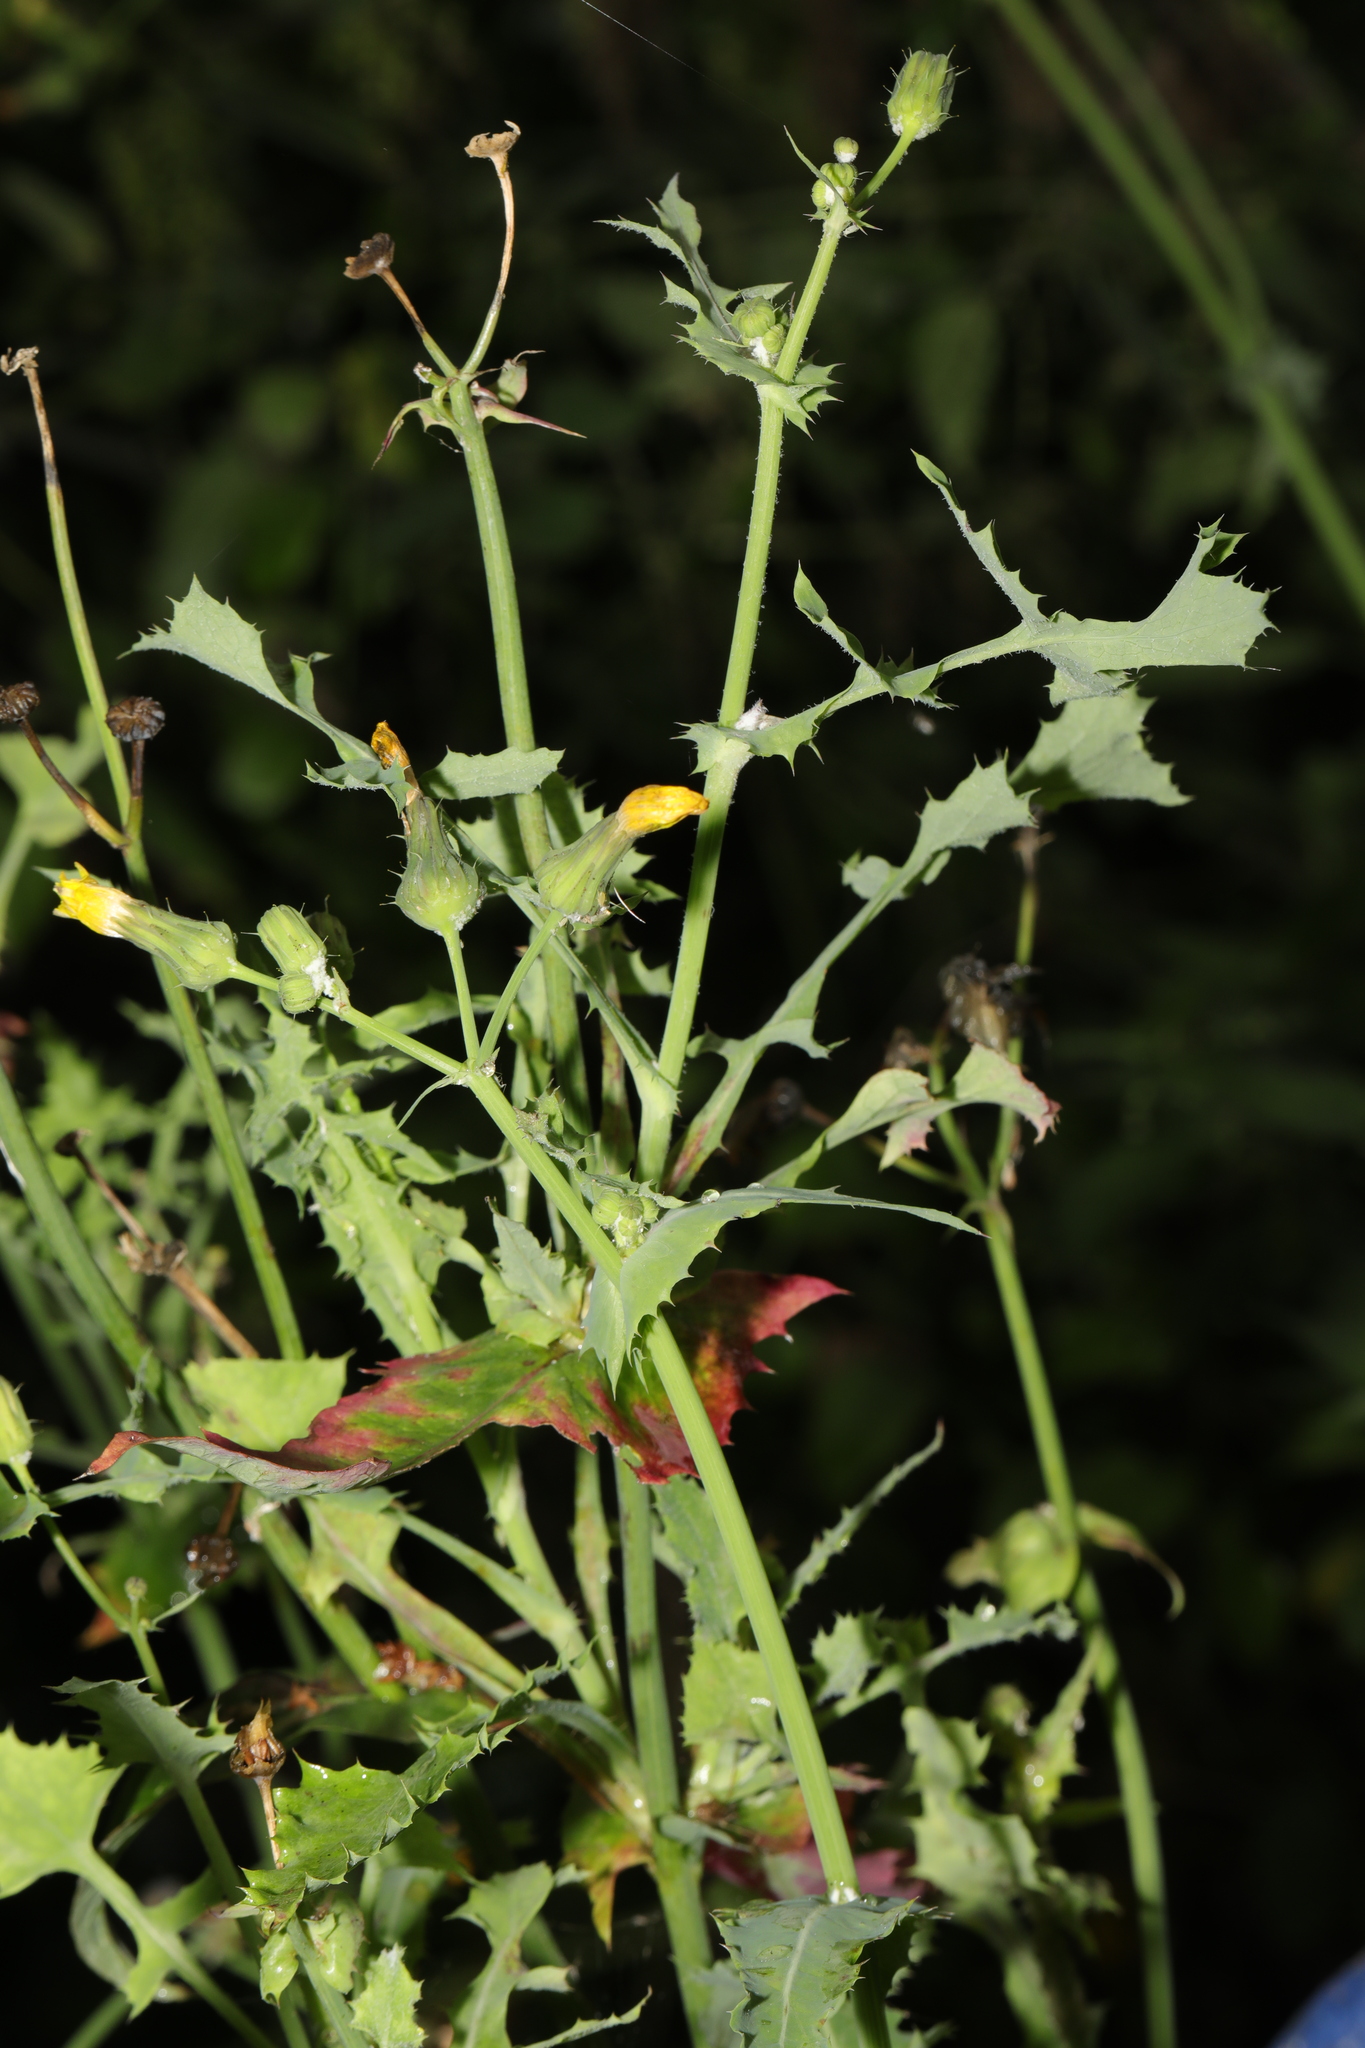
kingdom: Plantae
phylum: Tracheophyta
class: Magnoliopsida
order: Asterales
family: Asteraceae
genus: Sonchus
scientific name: Sonchus oleraceus
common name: Common sowthistle
